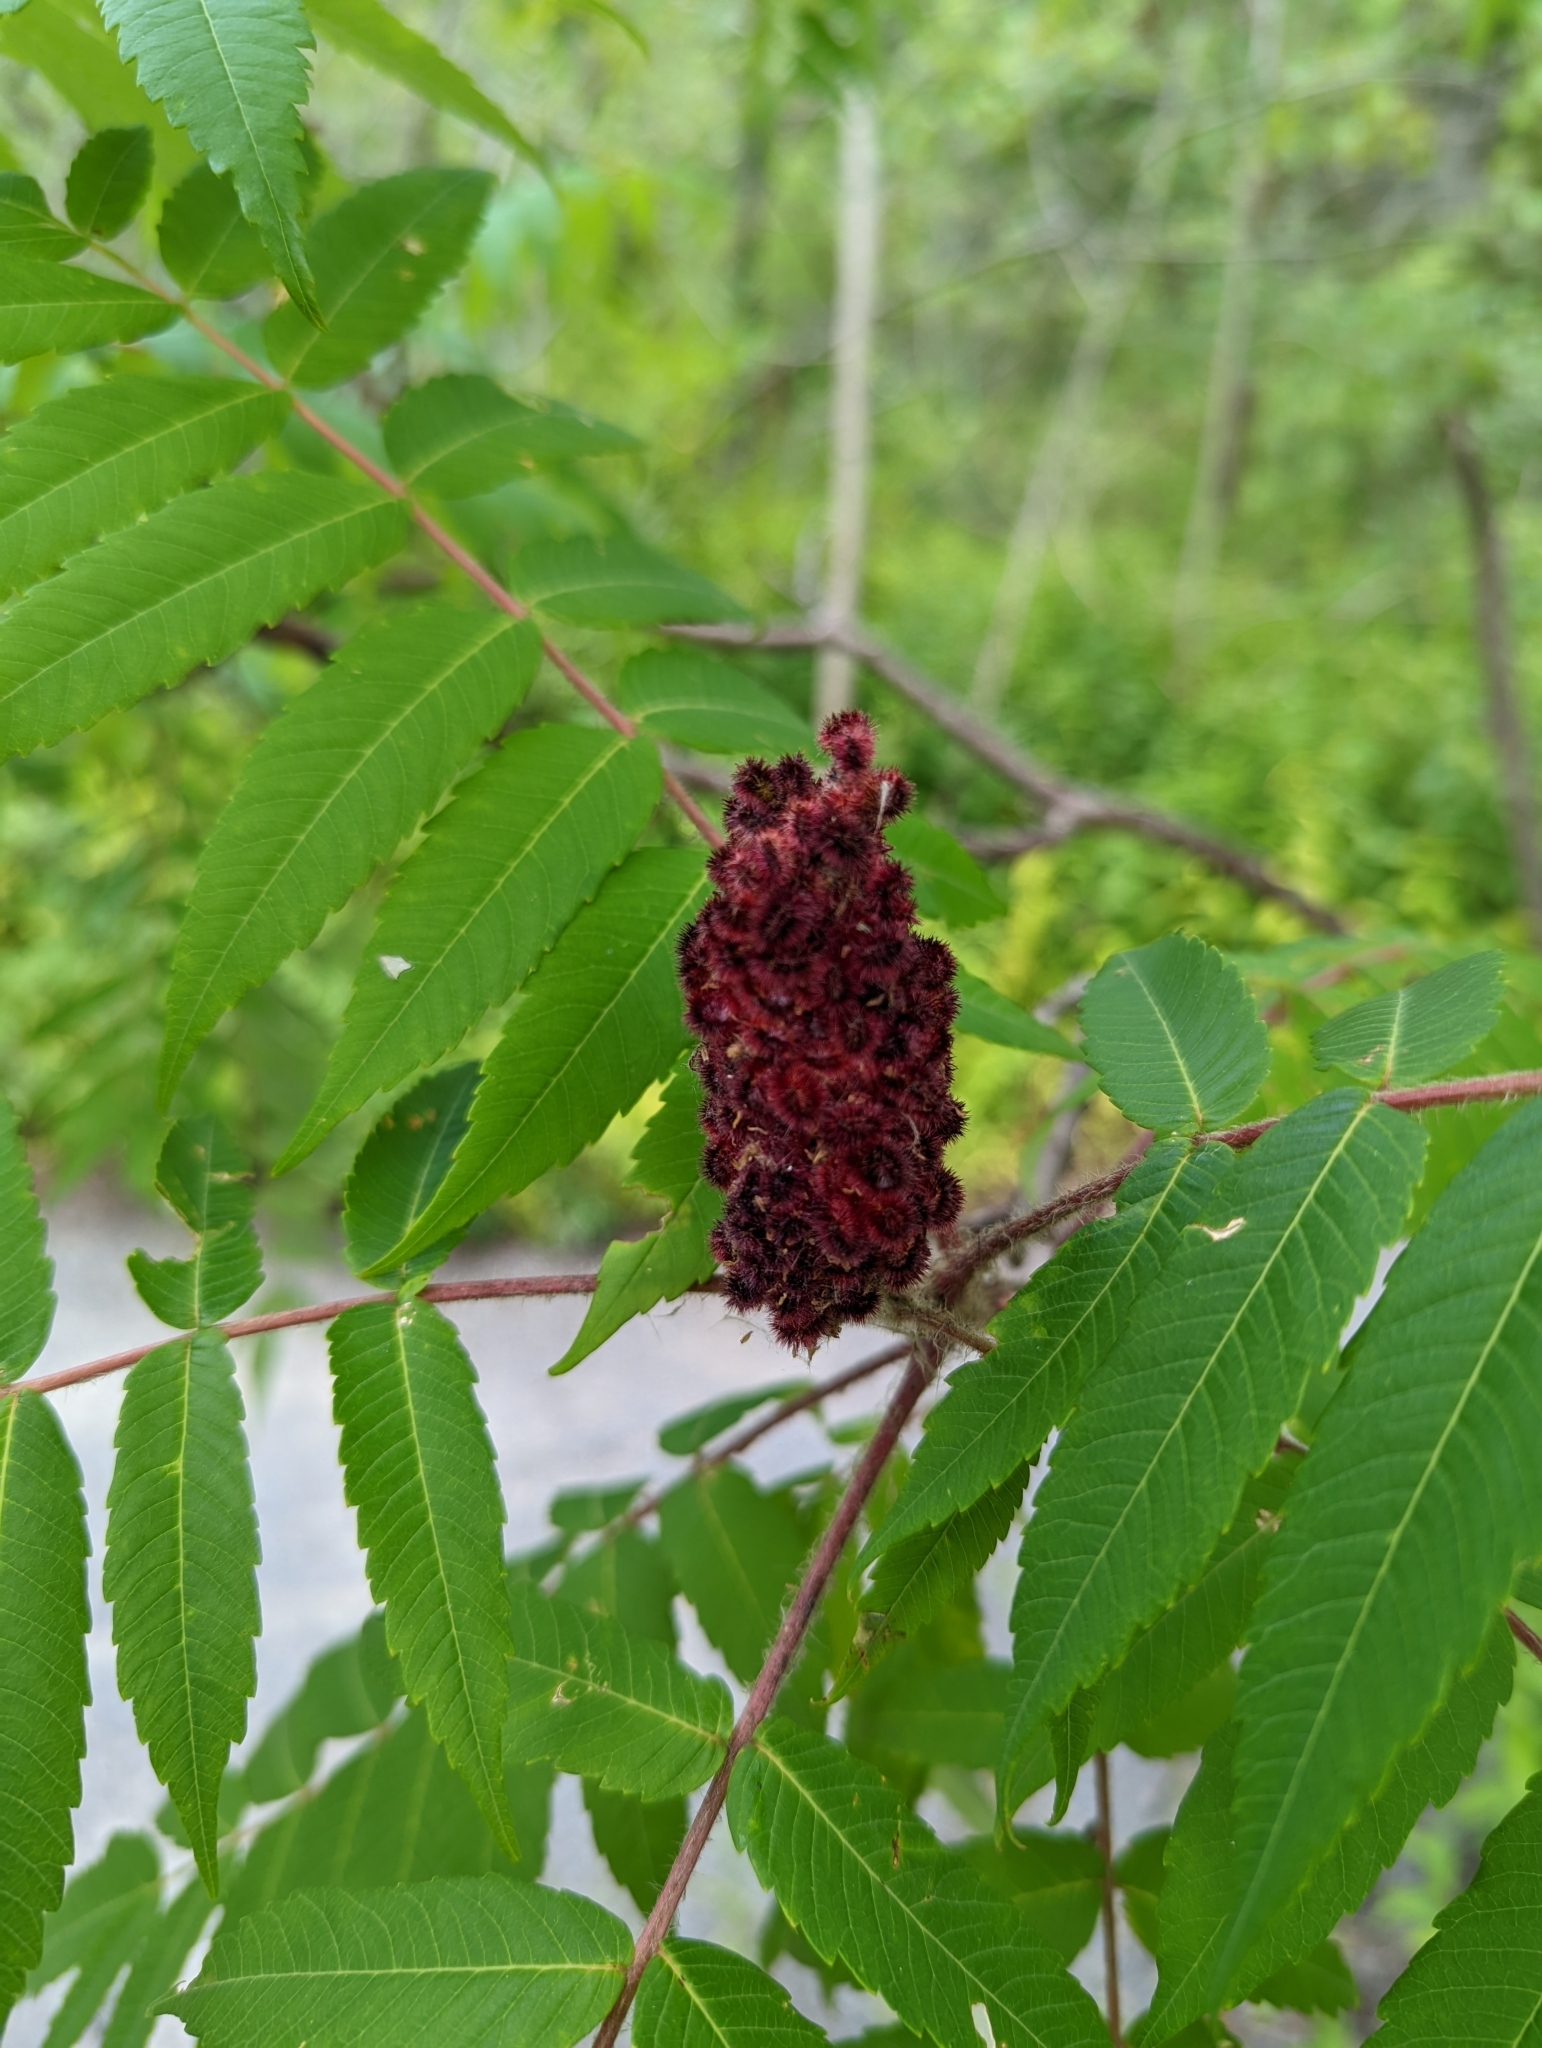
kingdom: Plantae
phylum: Tracheophyta
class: Magnoliopsida
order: Sapindales
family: Anacardiaceae
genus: Rhus
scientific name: Rhus typhina
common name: Staghorn sumac
